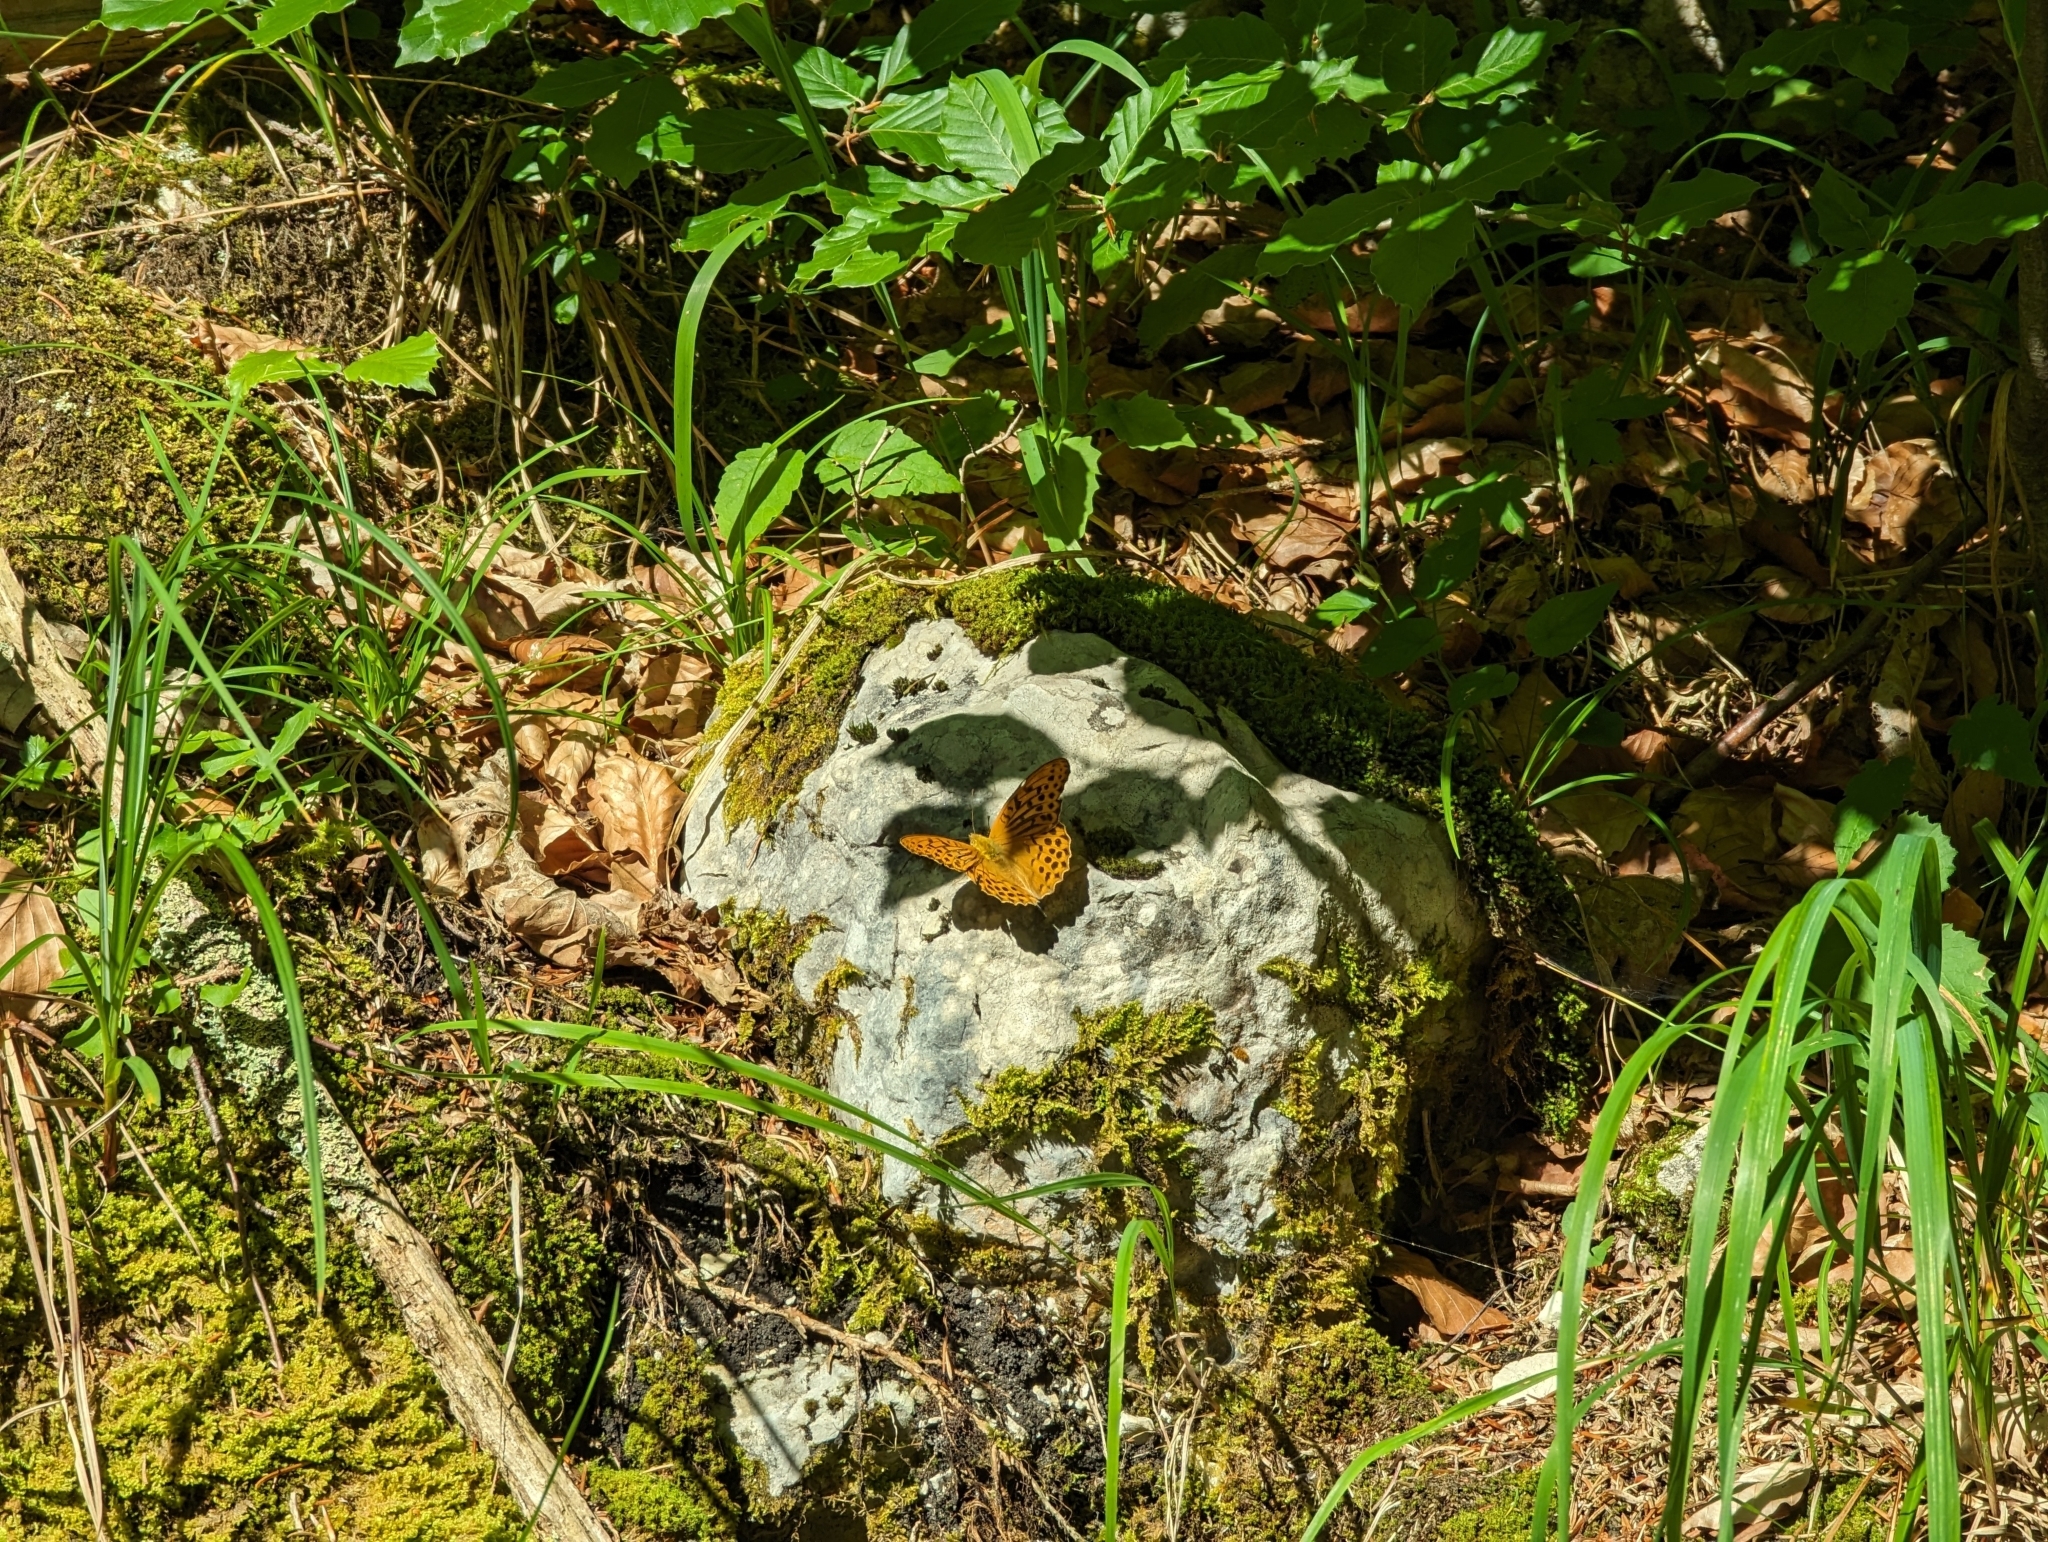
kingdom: Animalia
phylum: Arthropoda
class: Insecta
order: Lepidoptera
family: Nymphalidae
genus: Argynnis
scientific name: Argynnis paphia
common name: Silver-washed fritillary
